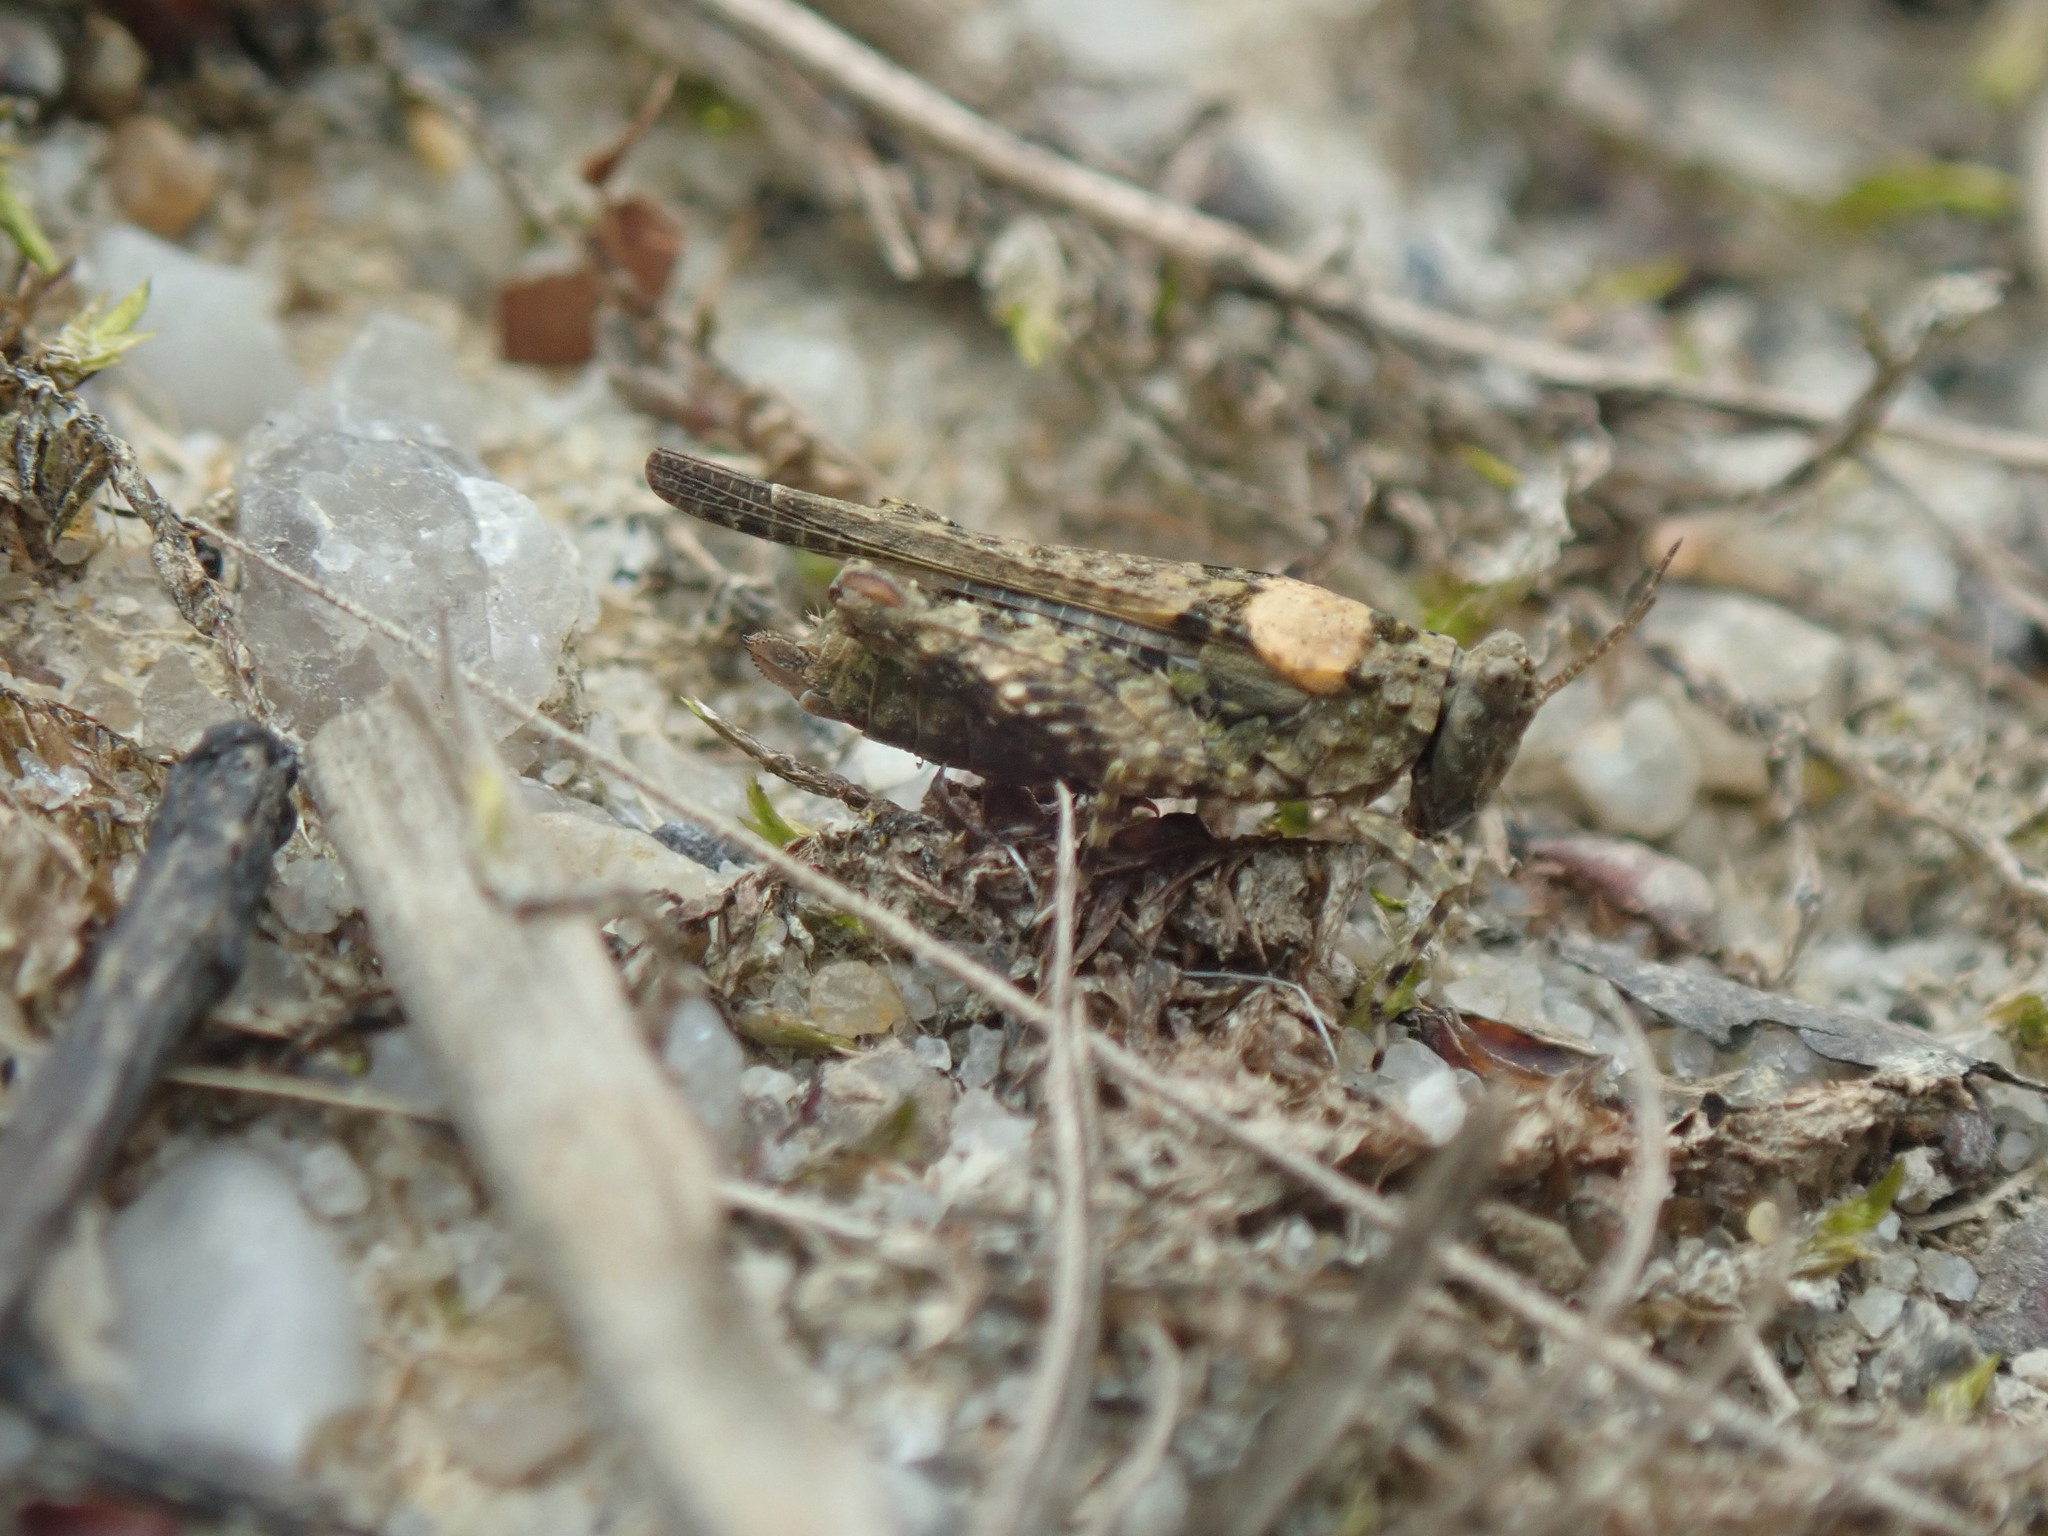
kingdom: Animalia
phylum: Arthropoda
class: Insecta
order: Orthoptera
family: Tetrigidae
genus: Paratettix
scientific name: Paratettix meridionalis
